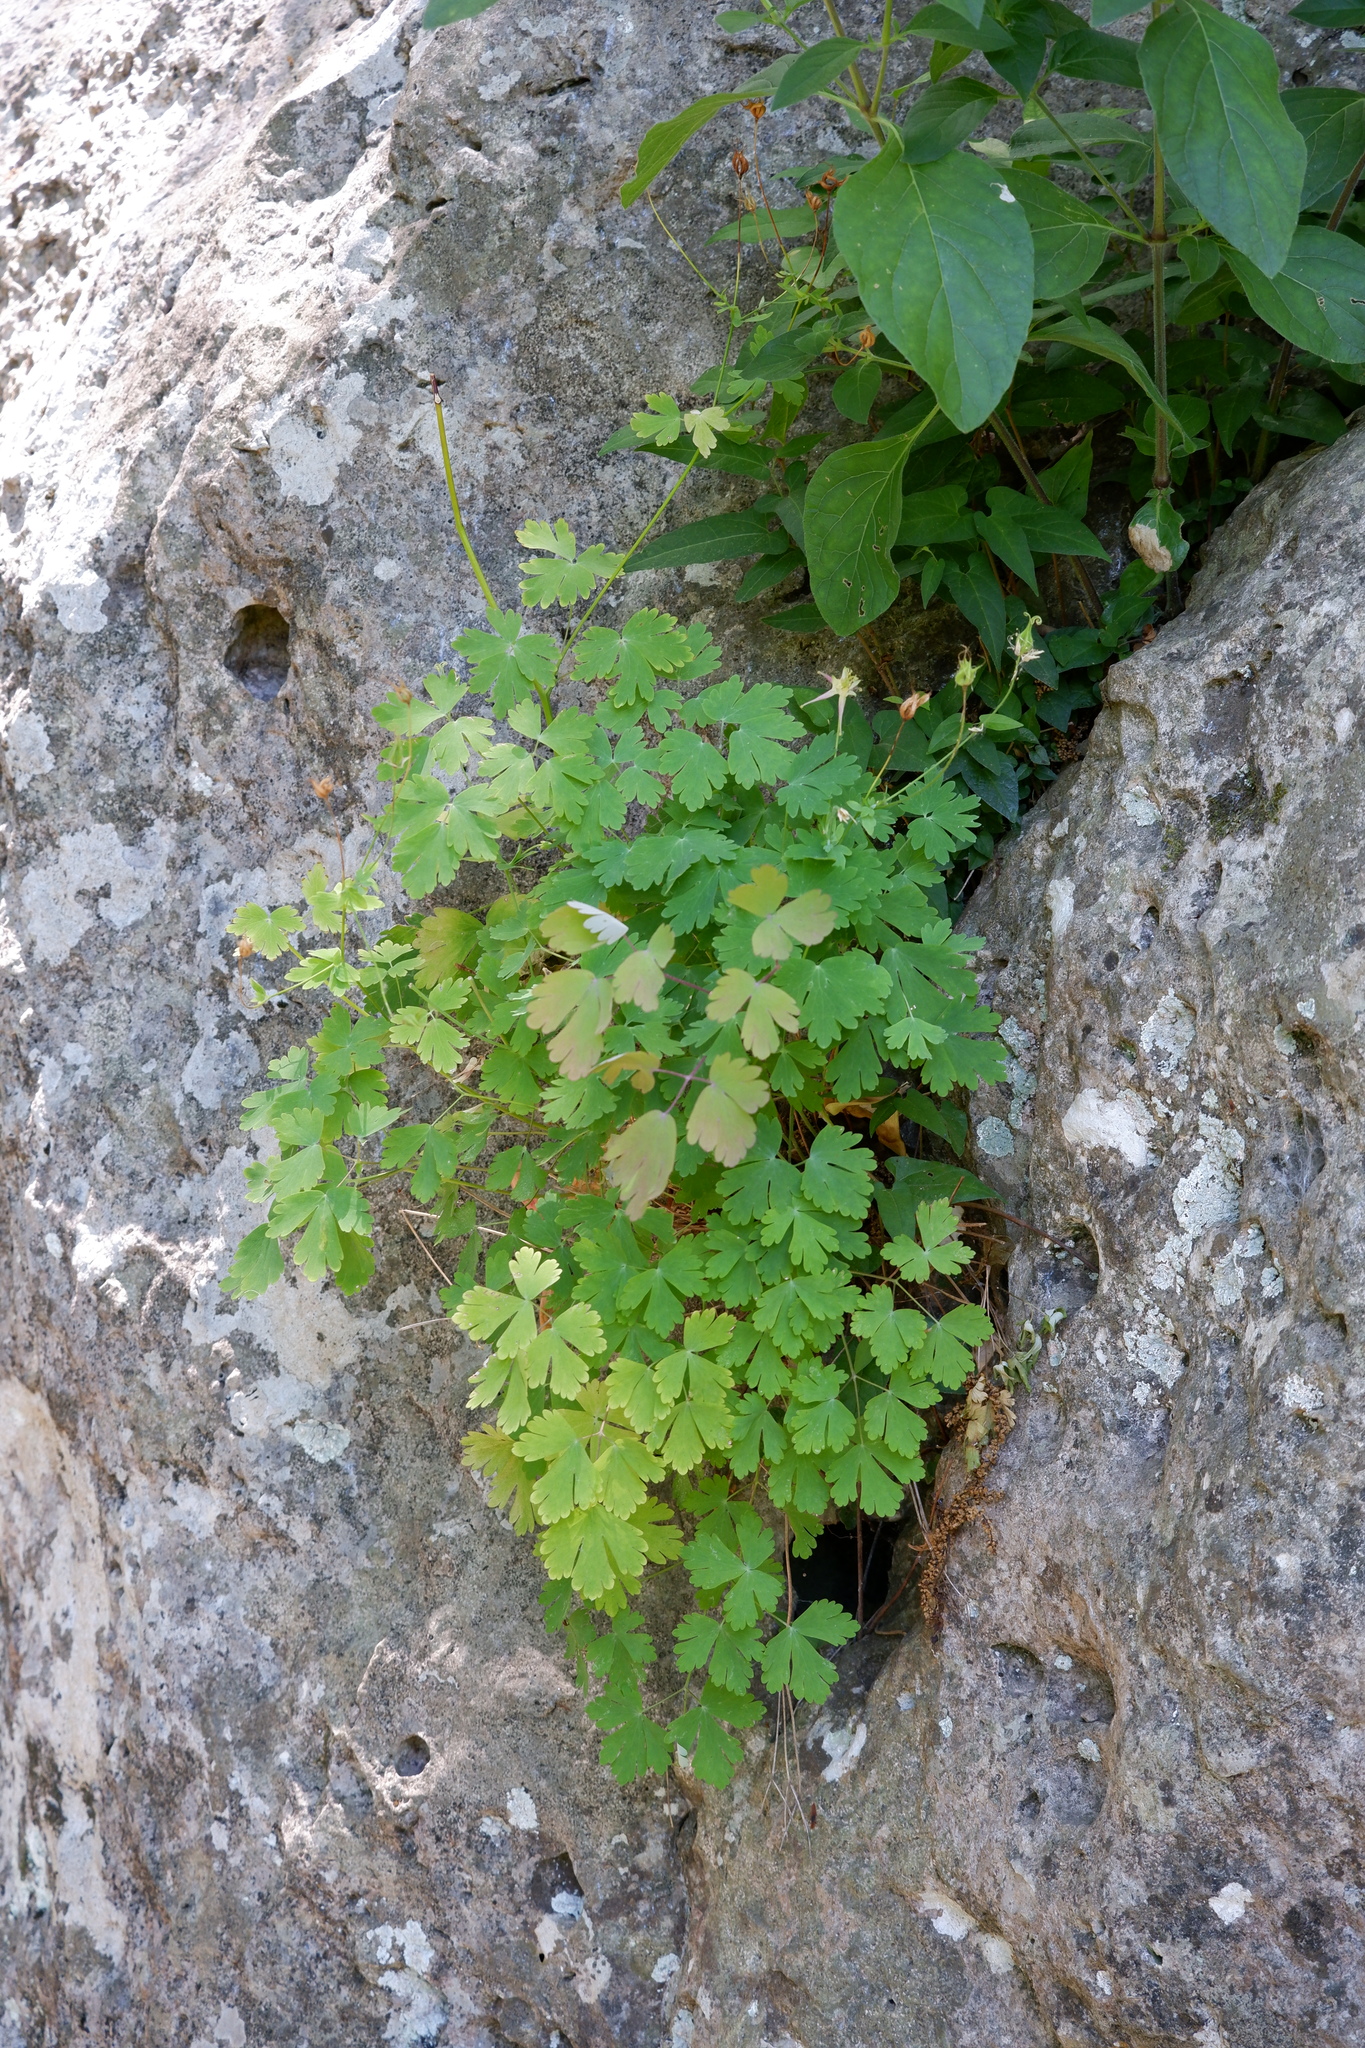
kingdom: Plantae
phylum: Tracheophyta
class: Magnoliopsida
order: Ranunculales
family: Ranunculaceae
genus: Aquilegia
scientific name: Aquilegia canadensis
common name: American columbine
